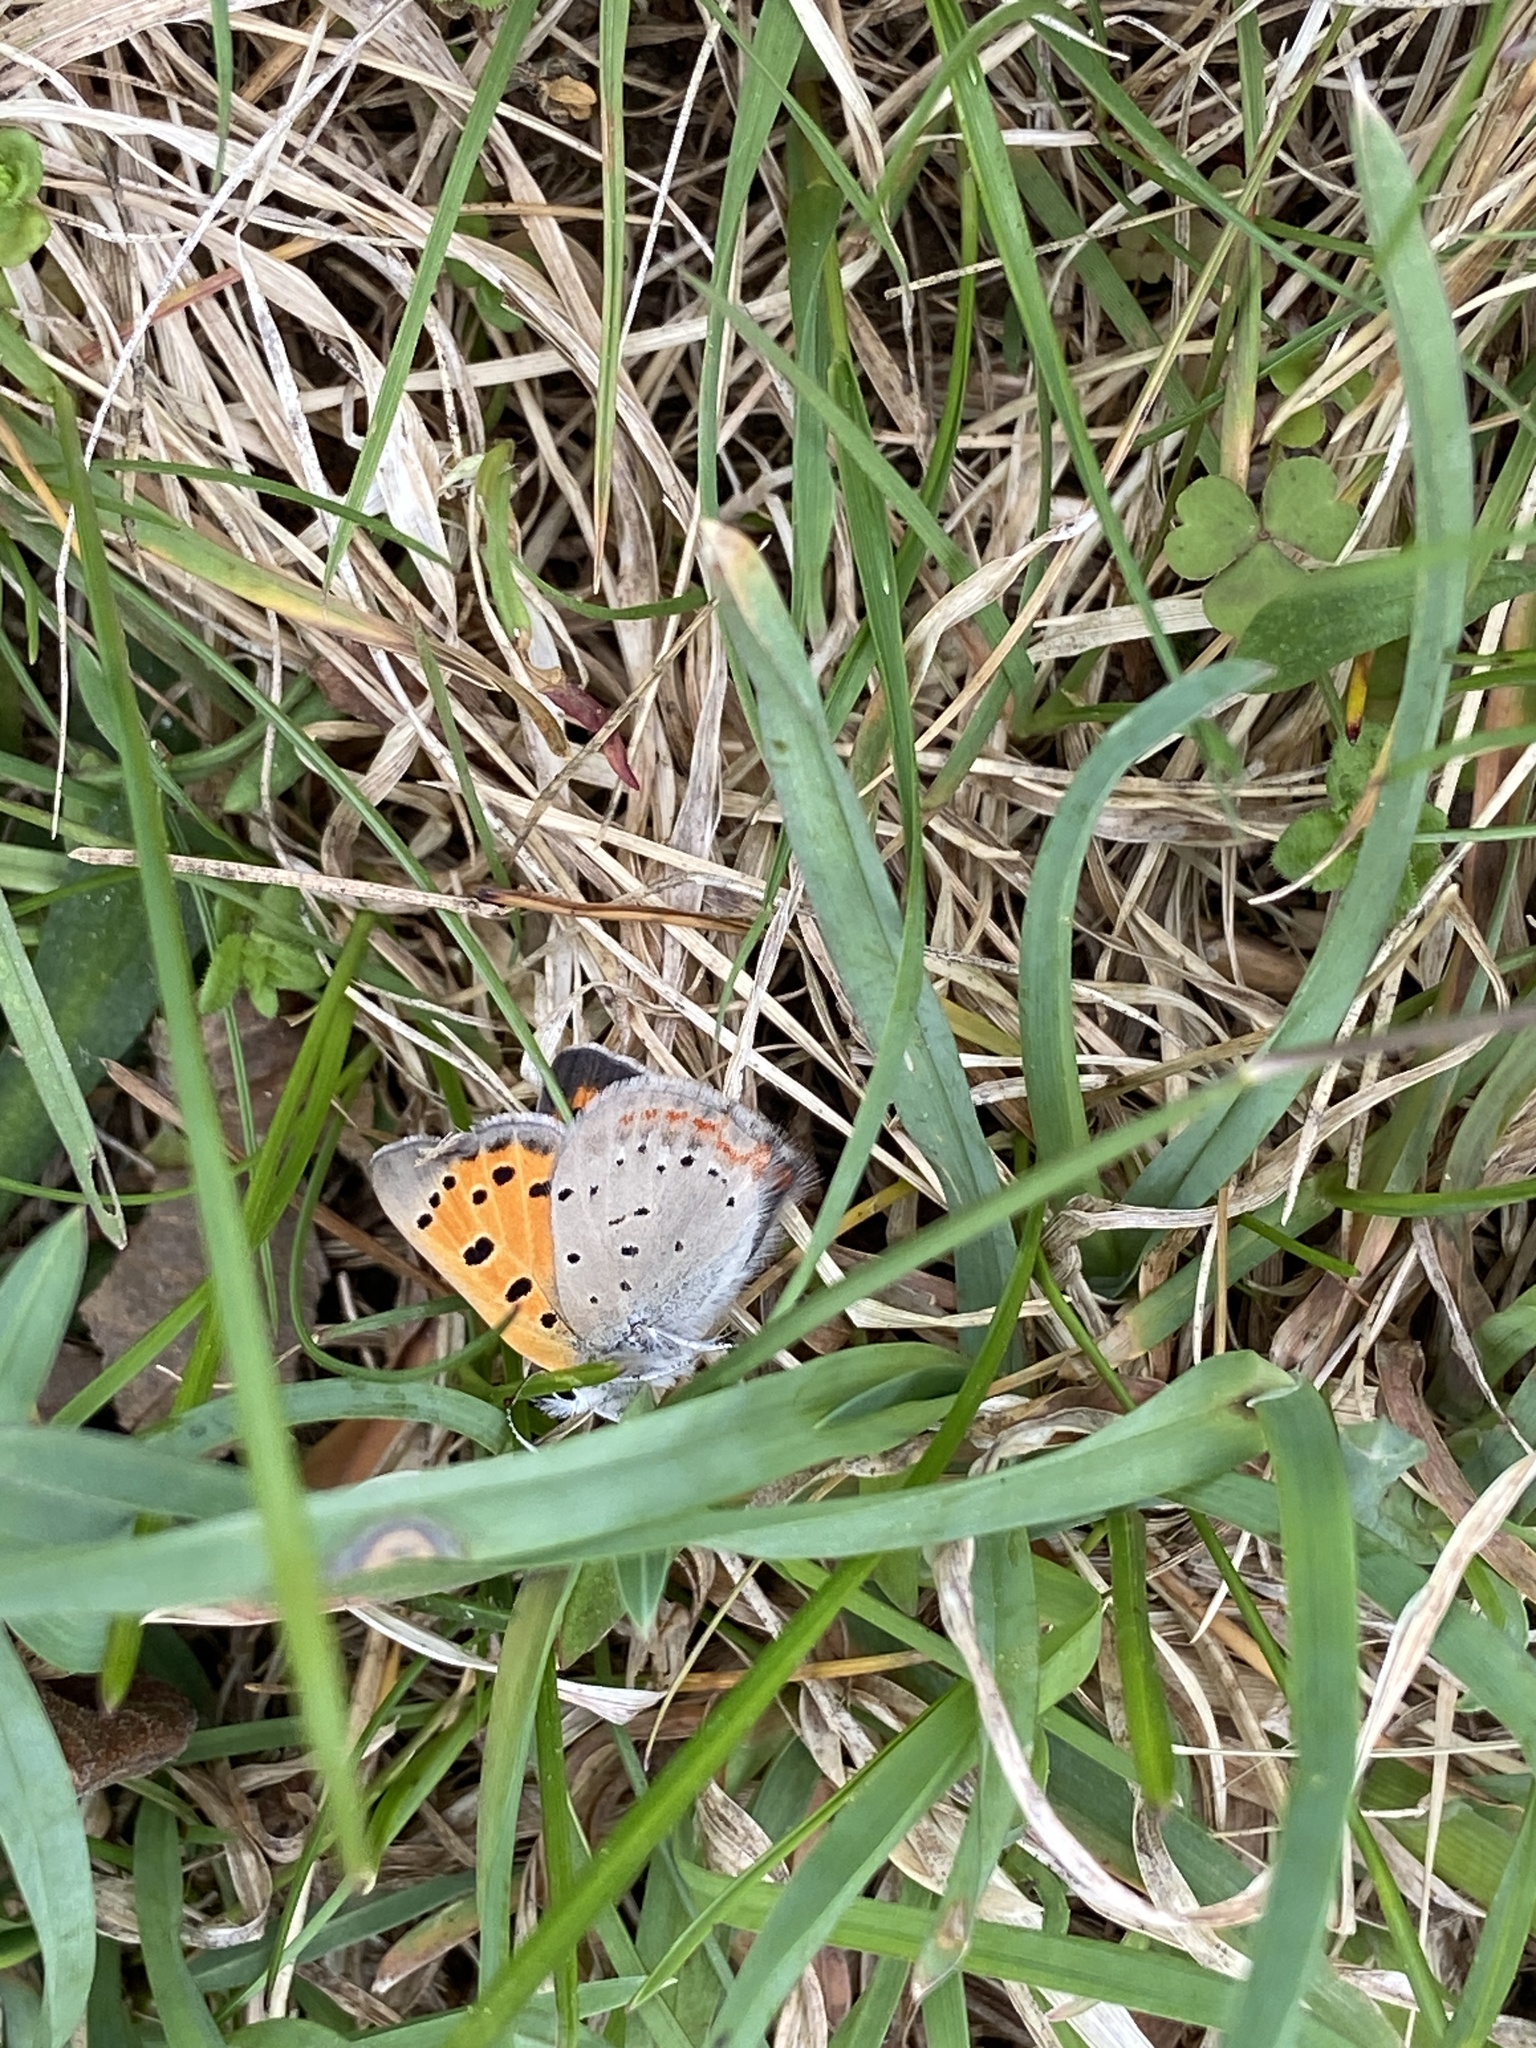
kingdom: Animalia
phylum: Arthropoda
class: Insecta
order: Lepidoptera
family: Lycaenidae
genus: Lycaena
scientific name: Lycaena hypophlaeas
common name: American copper
